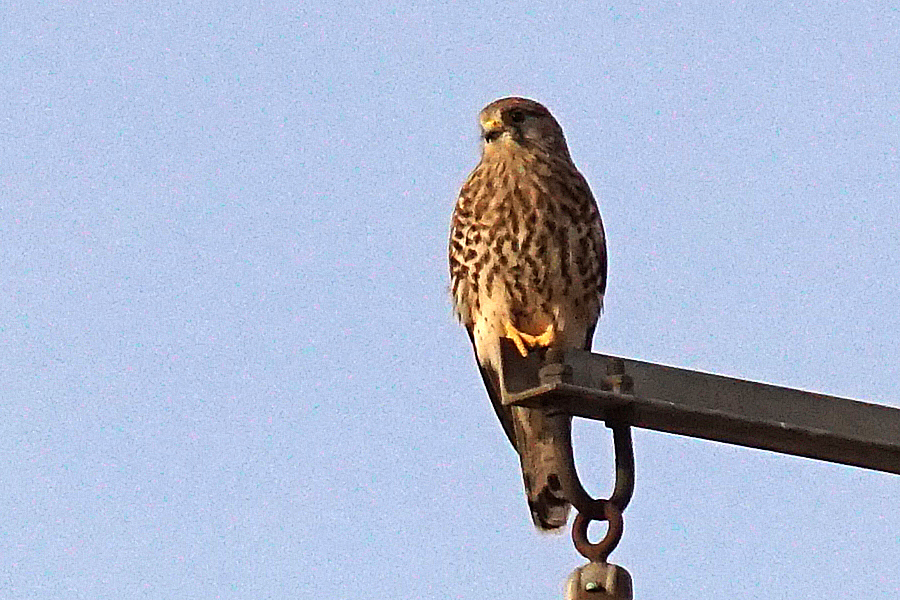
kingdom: Animalia
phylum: Chordata
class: Aves
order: Falconiformes
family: Falconidae
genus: Falco
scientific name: Falco tinnunculus
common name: Common kestrel
